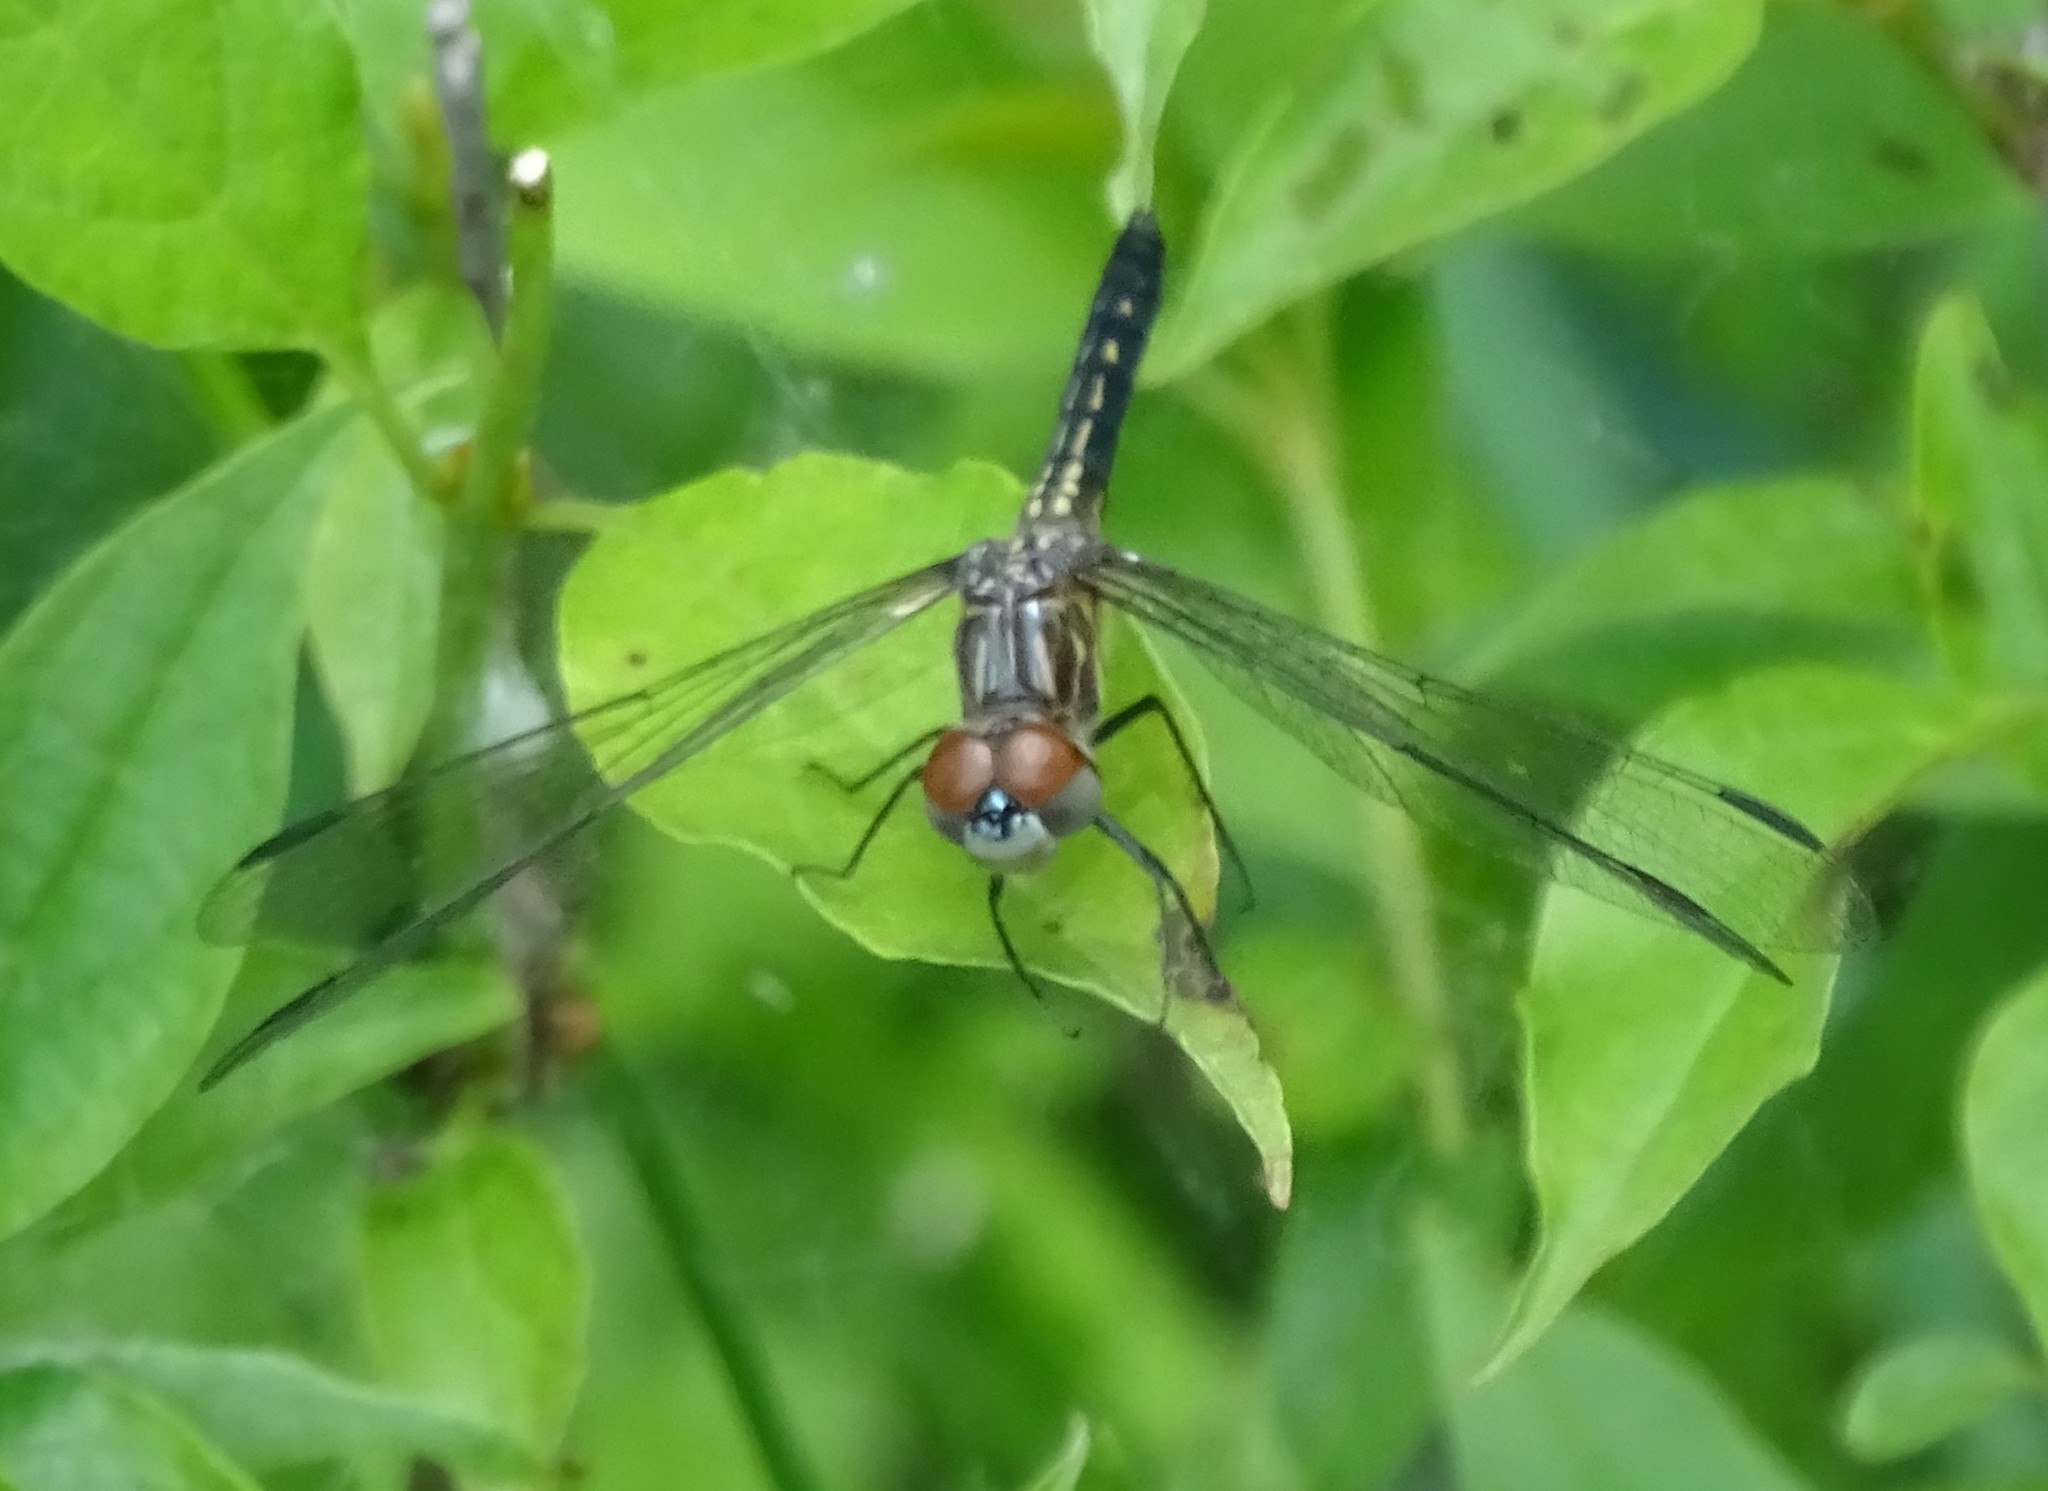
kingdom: Animalia
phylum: Arthropoda
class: Insecta
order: Odonata
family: Libellulidae
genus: Pachydiplax
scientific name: Pachydiplax longipennis
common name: Blue dasher
